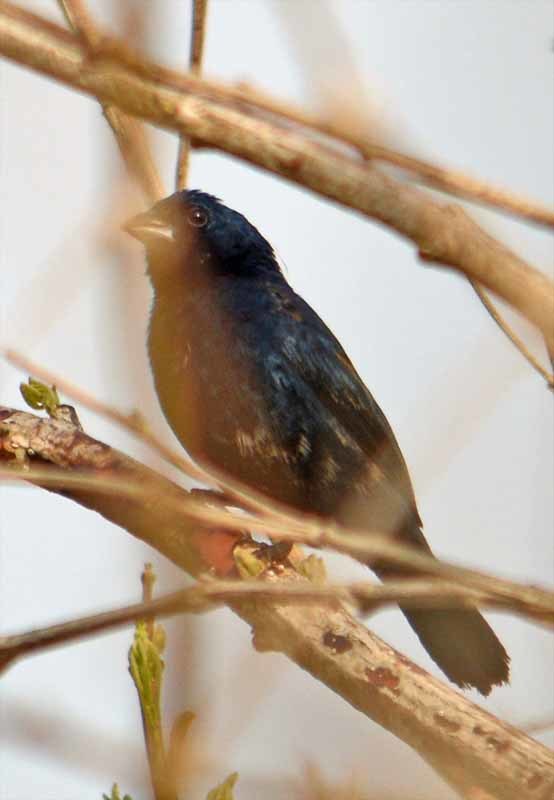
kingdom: Animalia
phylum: Chordata
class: Aves
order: Passeriformes
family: Thraupidae
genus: Volatinia
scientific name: Volatinia jacarina
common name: Blue-black grassquit
